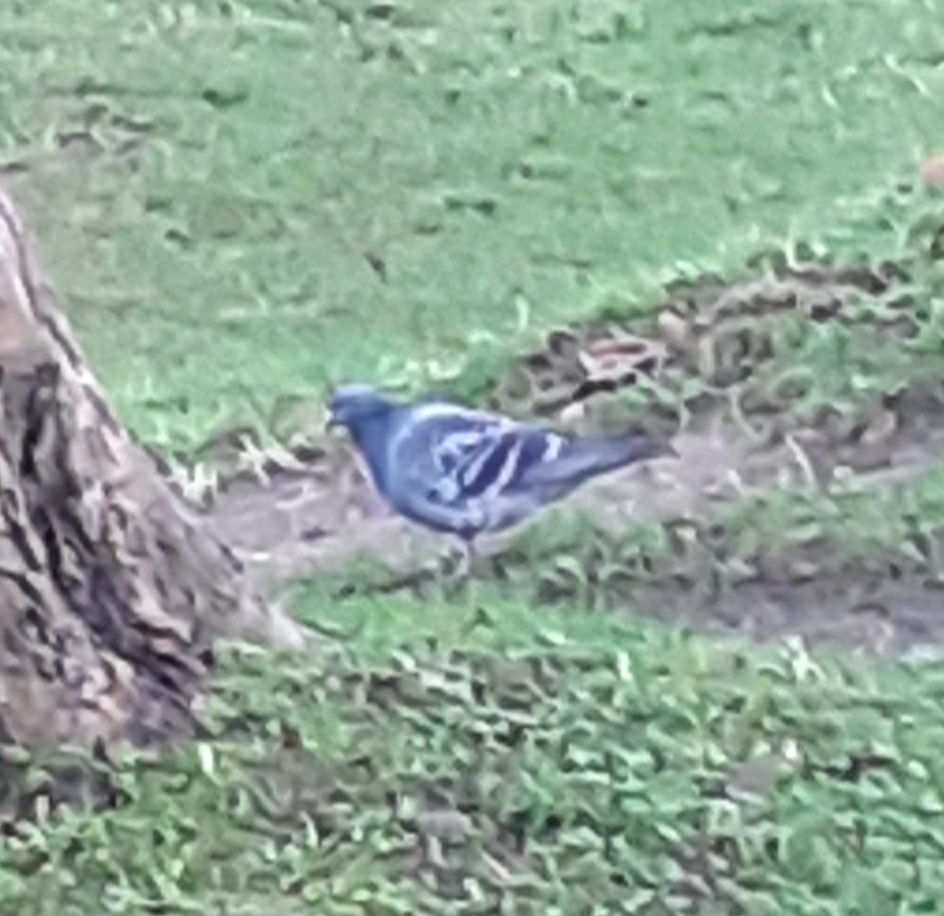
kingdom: Animalia
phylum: Chordata
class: Aves
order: Columbiformes
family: Columbidae
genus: Columba
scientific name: Columba livia
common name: Rock pigeon
